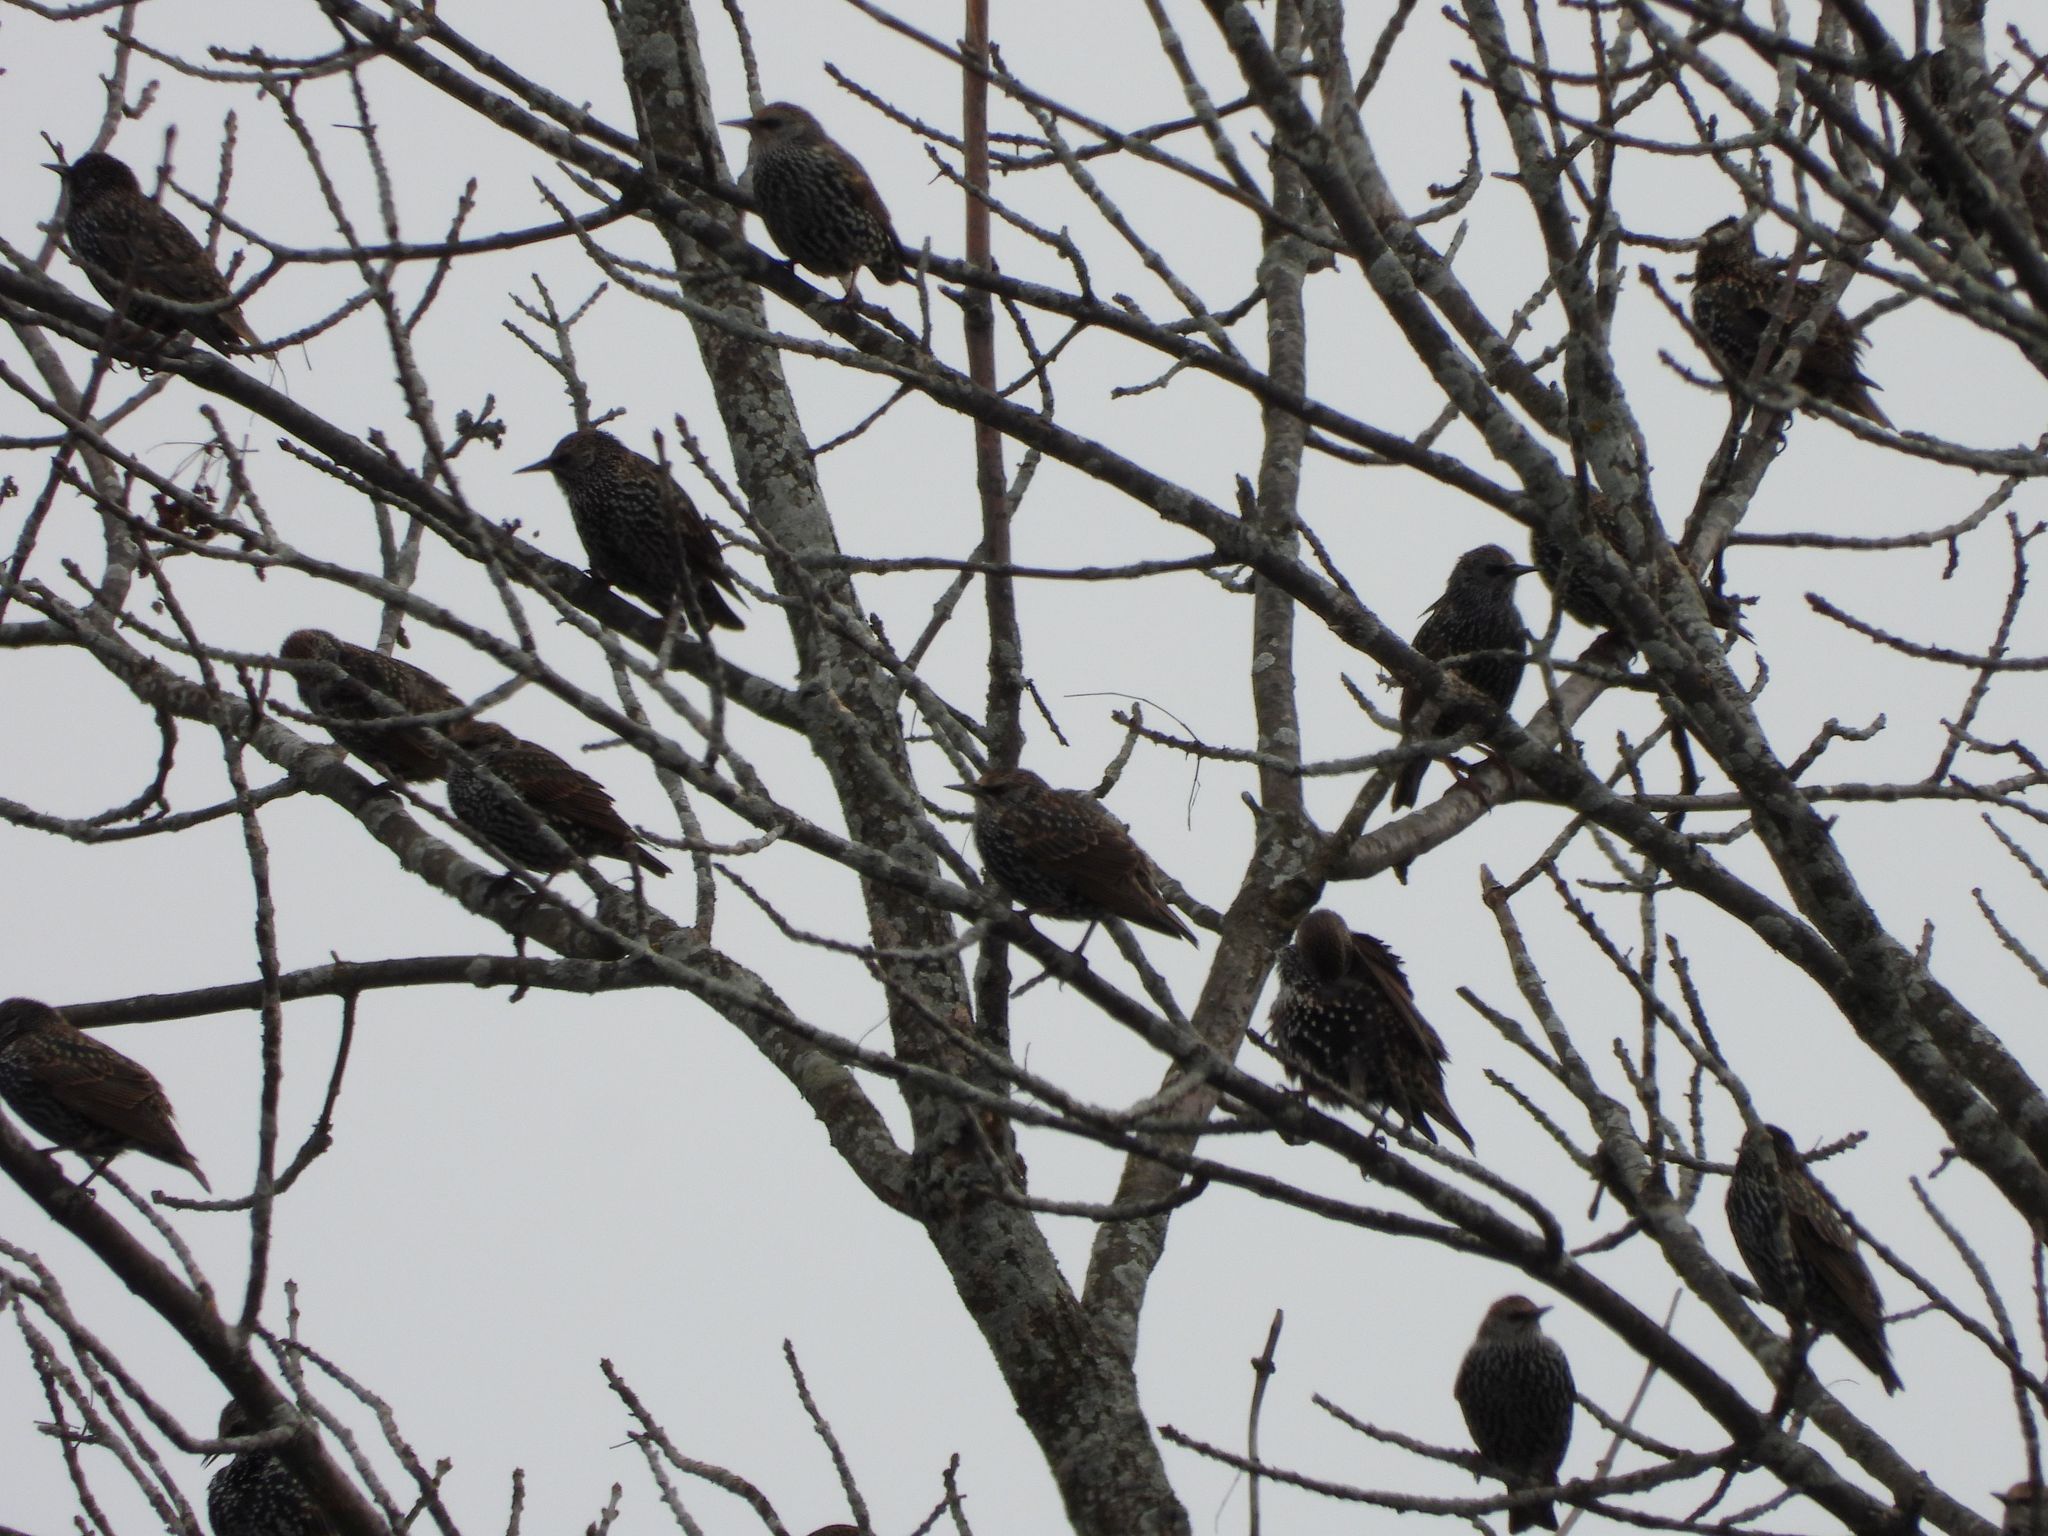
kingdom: Animalia
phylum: Chordata
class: Aves
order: Passeriformes
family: Sturnidae
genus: Sturnus
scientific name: Sturnus vulgaris
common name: Common starling
